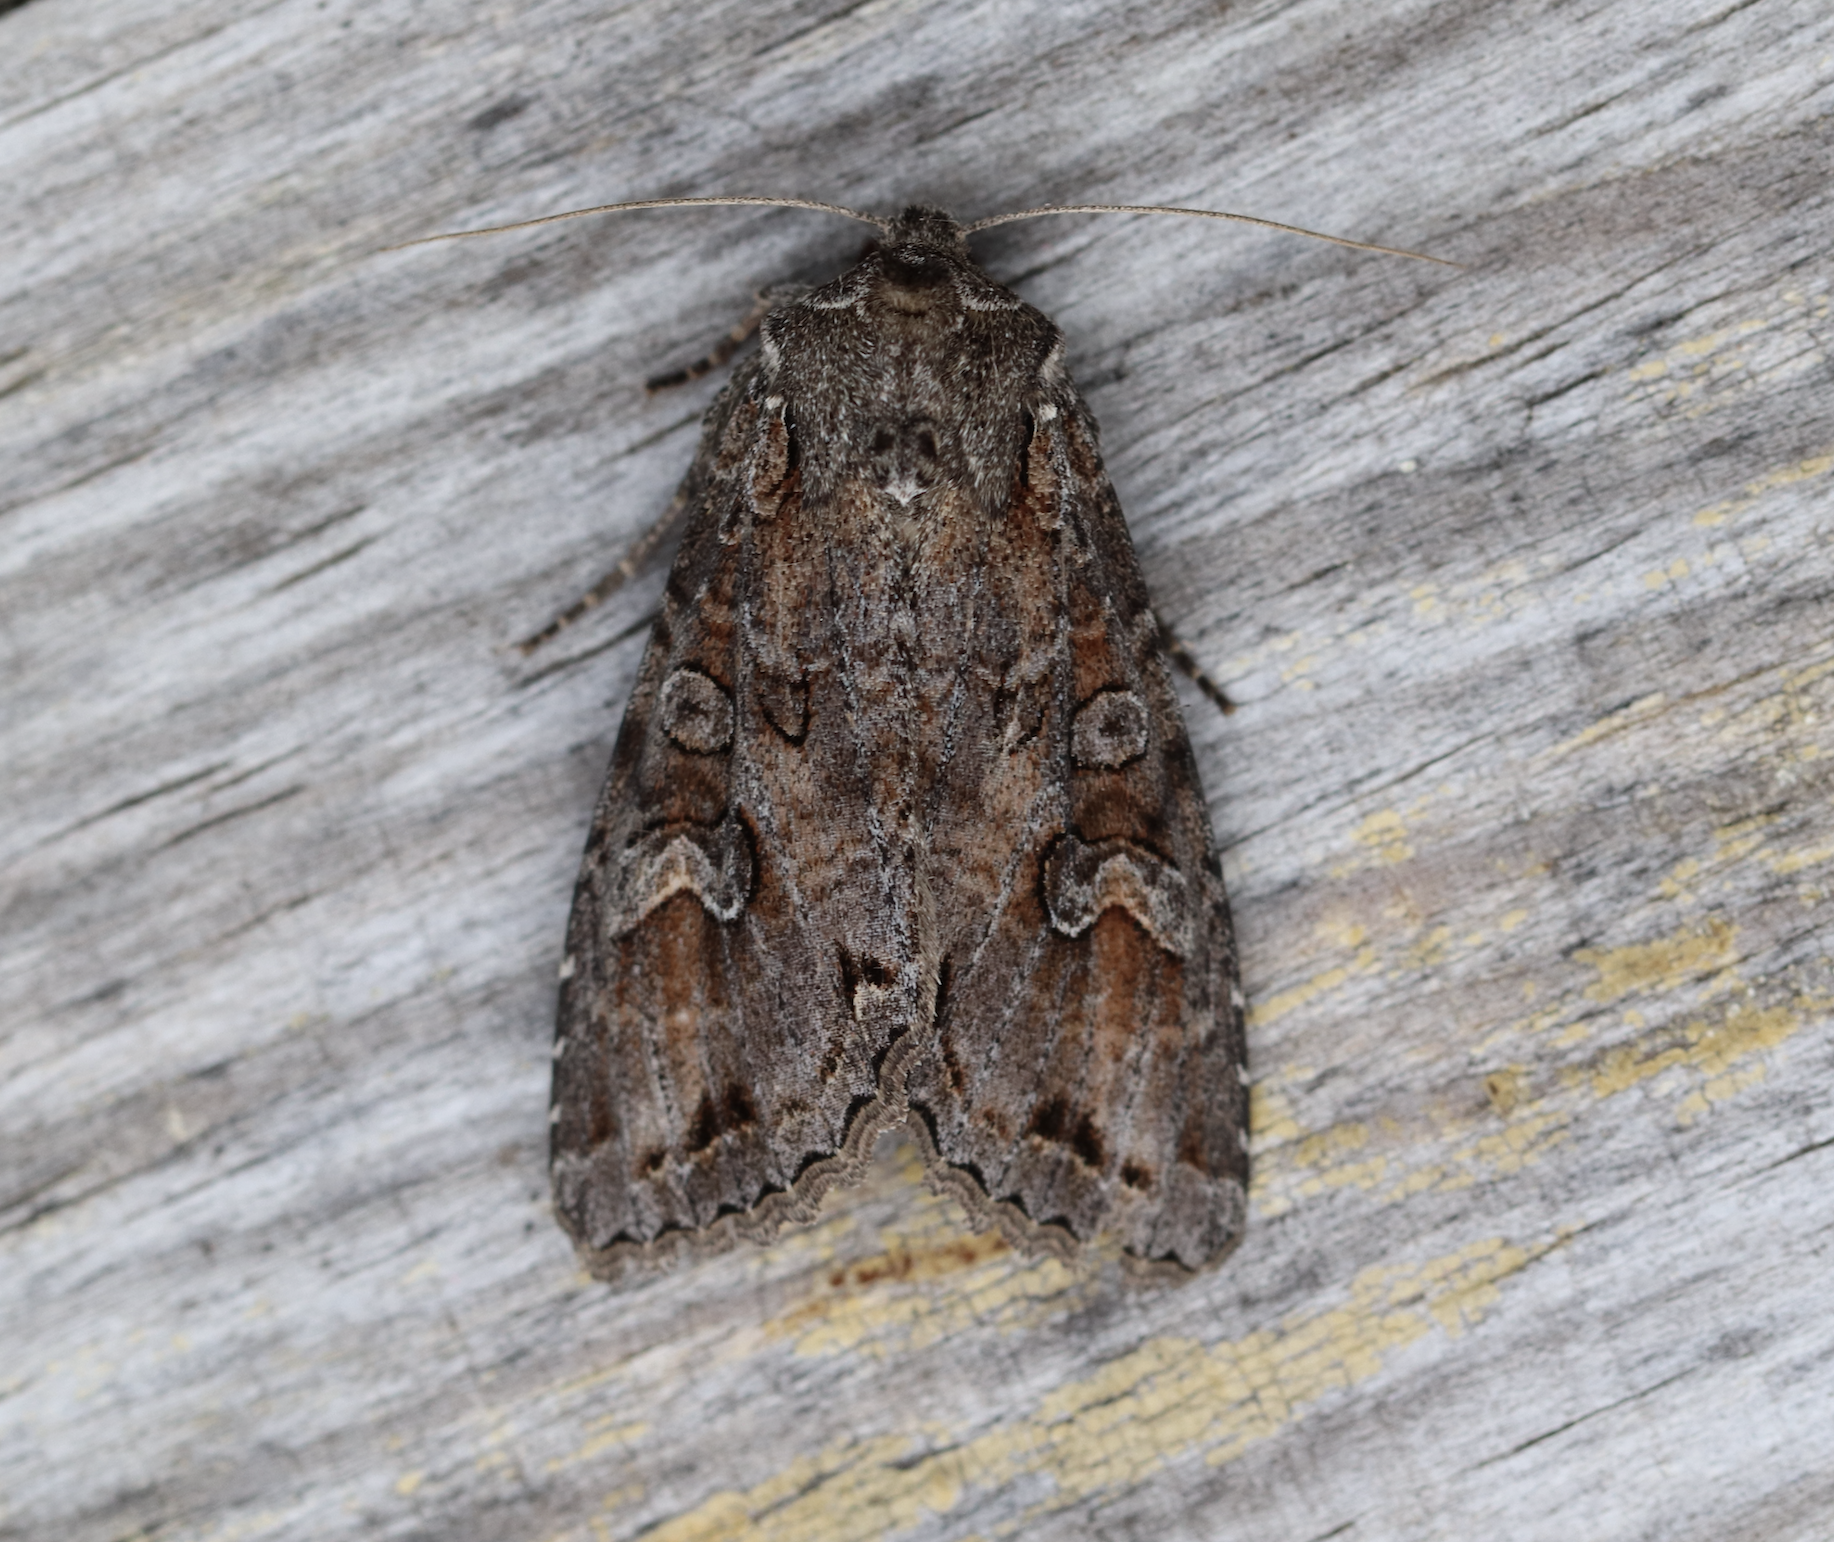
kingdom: Animalia
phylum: Arthropoda
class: Insecta
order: Lepidoptera
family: Noctuidae
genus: Polia
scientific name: Polia bombycina
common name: Pale shining brown
